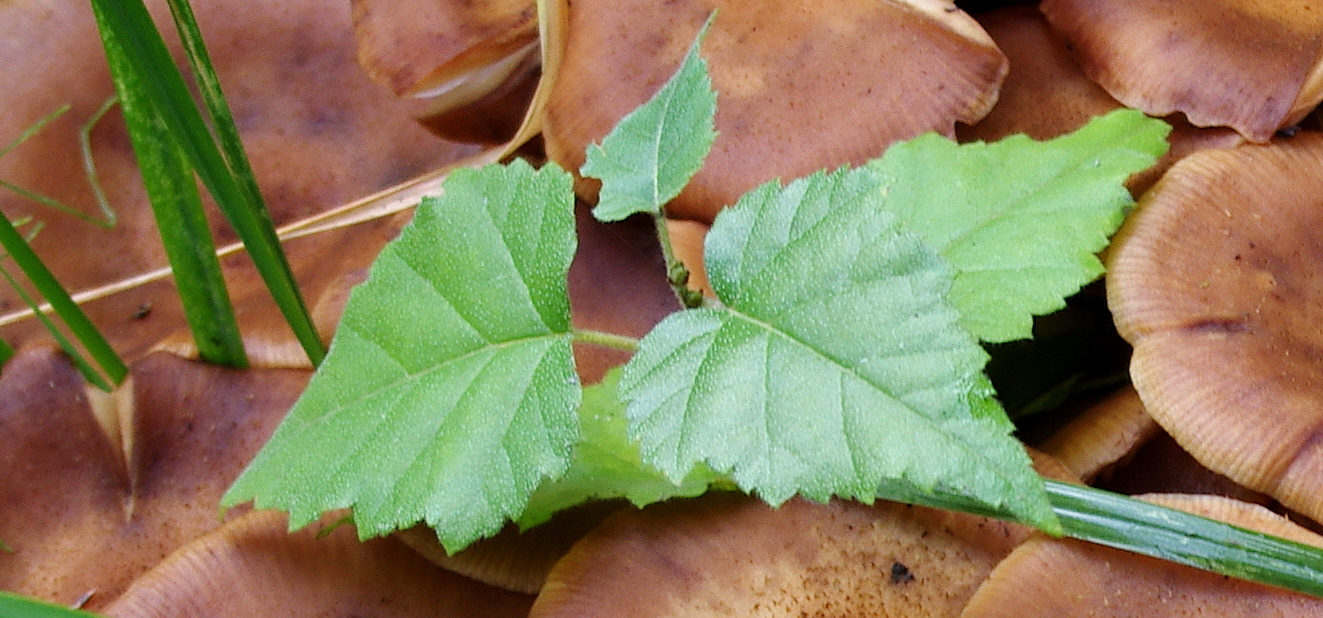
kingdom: Plantae
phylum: Tracheophyta
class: Magnoliopsida
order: Fagales
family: Betulaceae
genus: Betula
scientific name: Betula pubescens
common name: Downy birch
